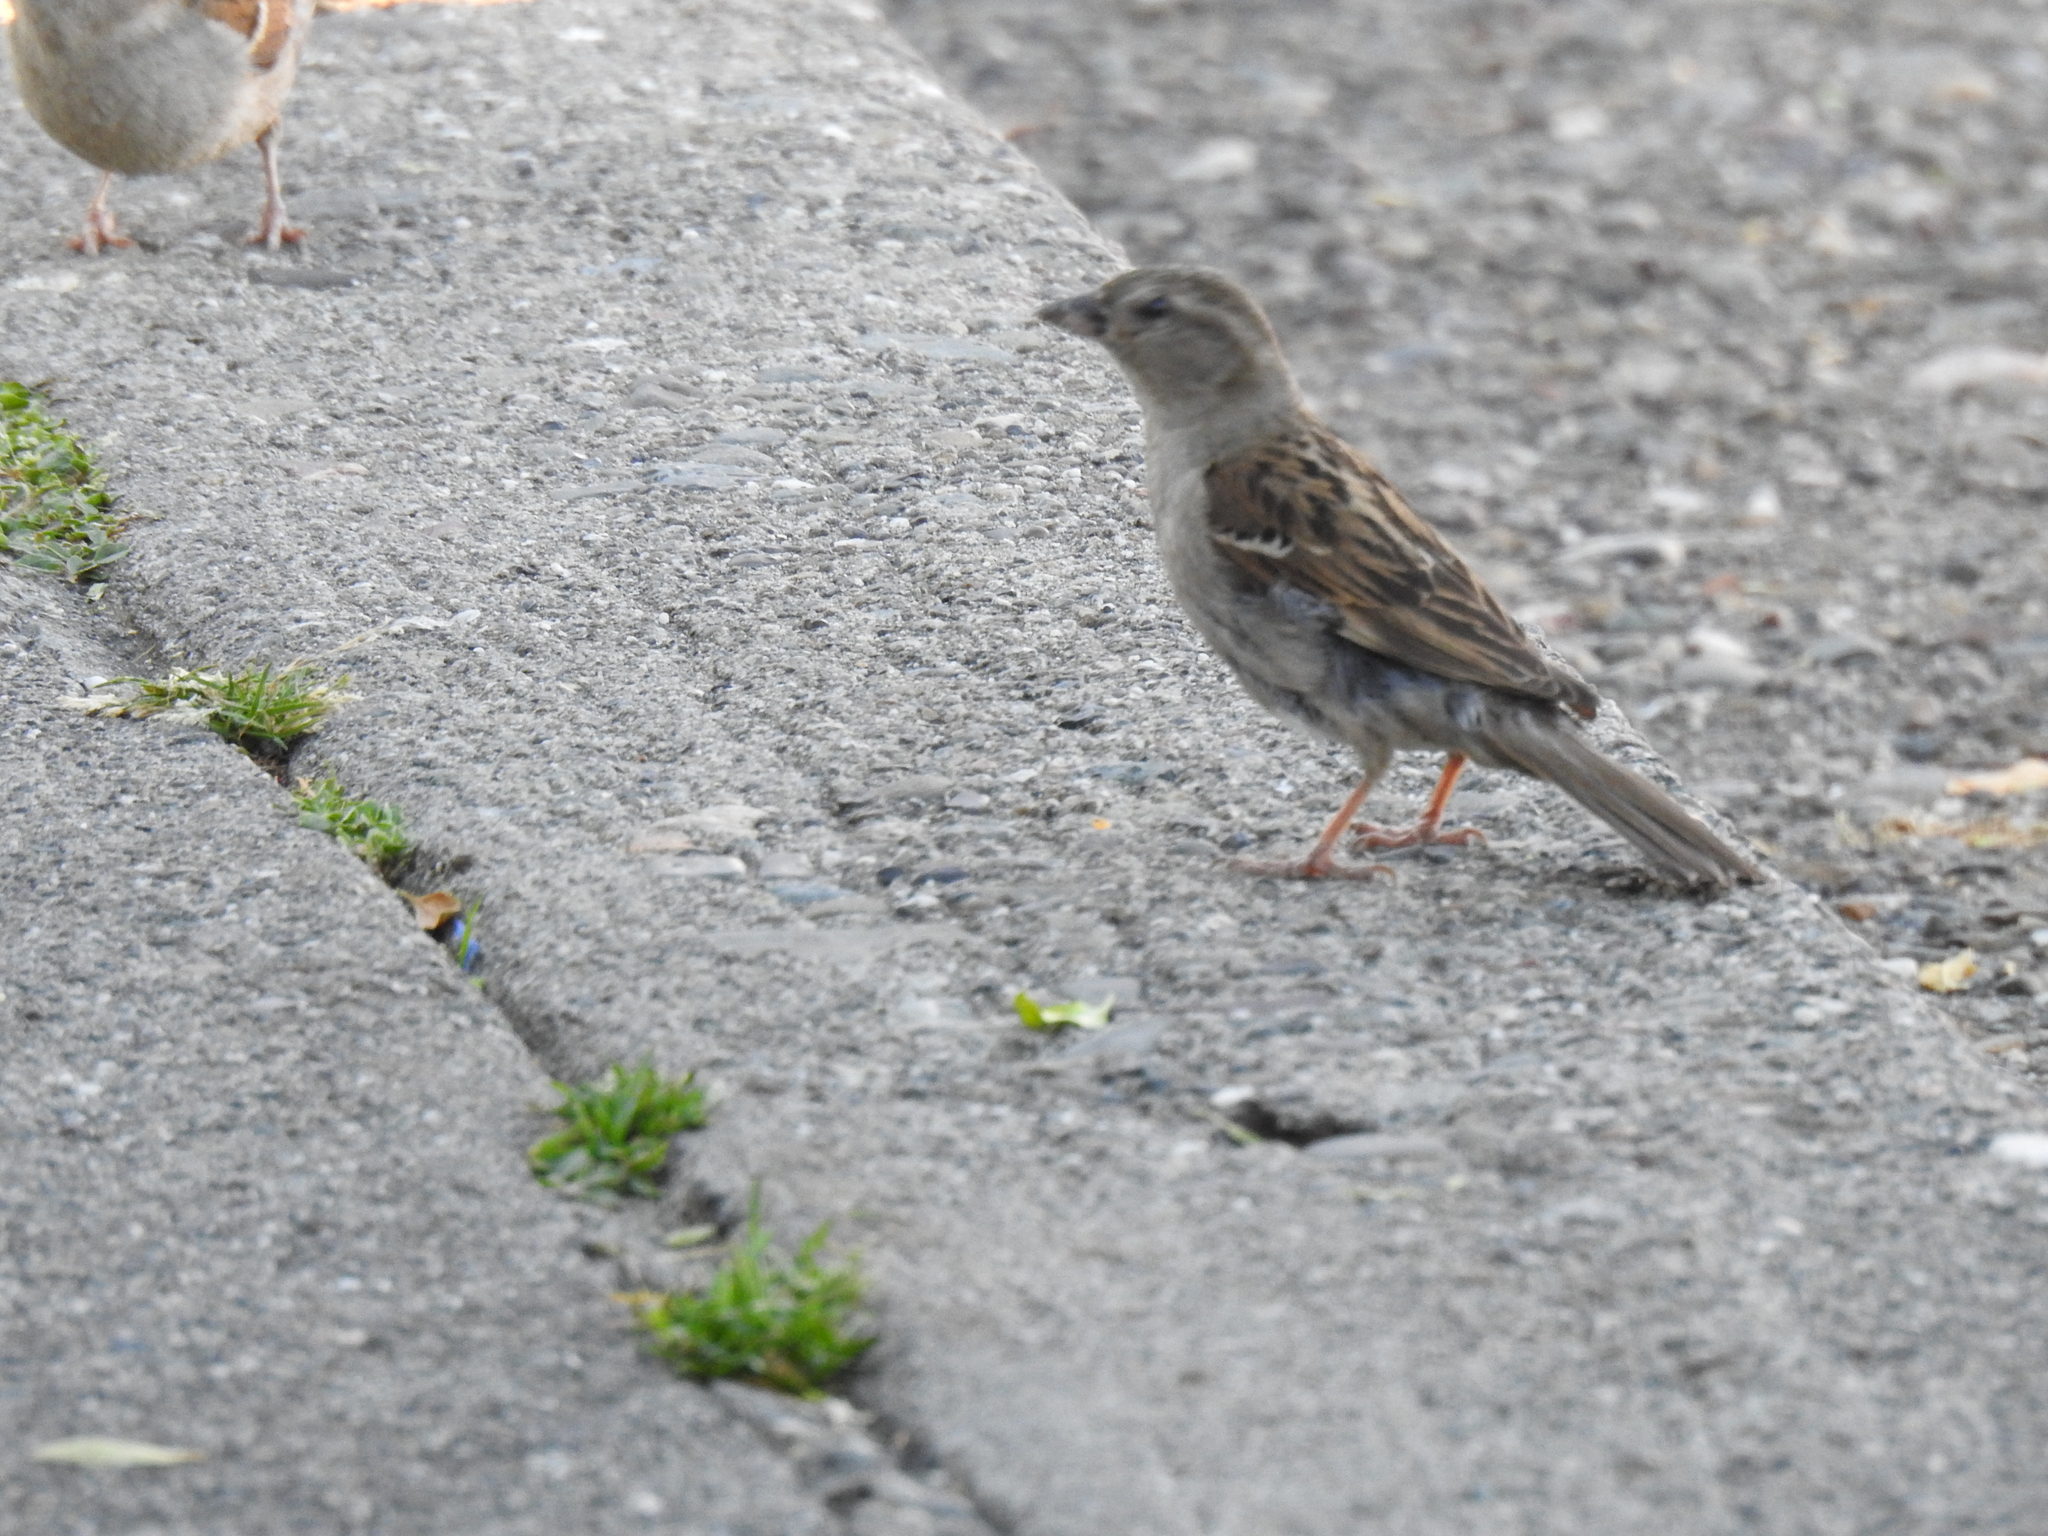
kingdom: Animalia
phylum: Chordata
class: Aves
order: Passeriformes
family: Passeridae
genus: Passer
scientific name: Passer domesticus
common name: House sparrow
